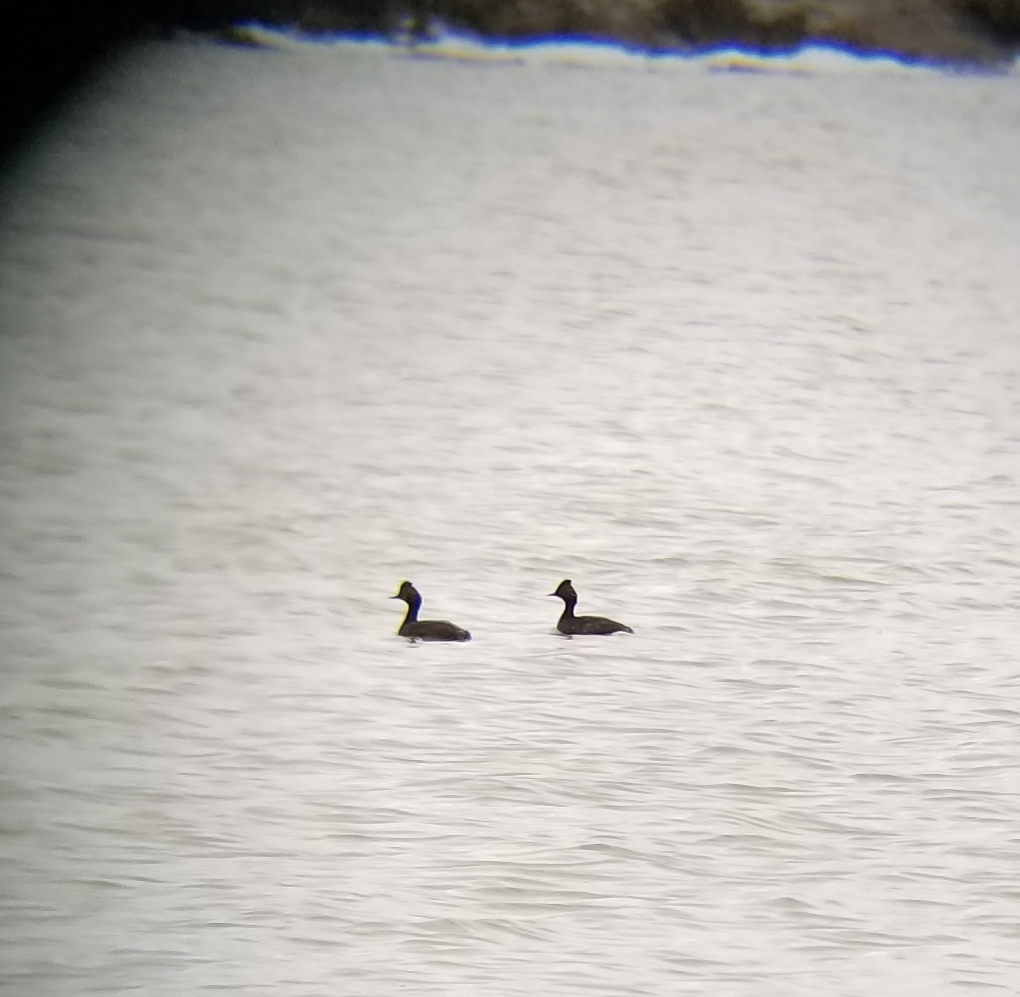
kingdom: Animalia
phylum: Chordata
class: Aves
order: Podicipediformes
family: Podicipedidae
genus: Podiceps
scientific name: Podiceps nigricollis
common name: Black-necked grebe
